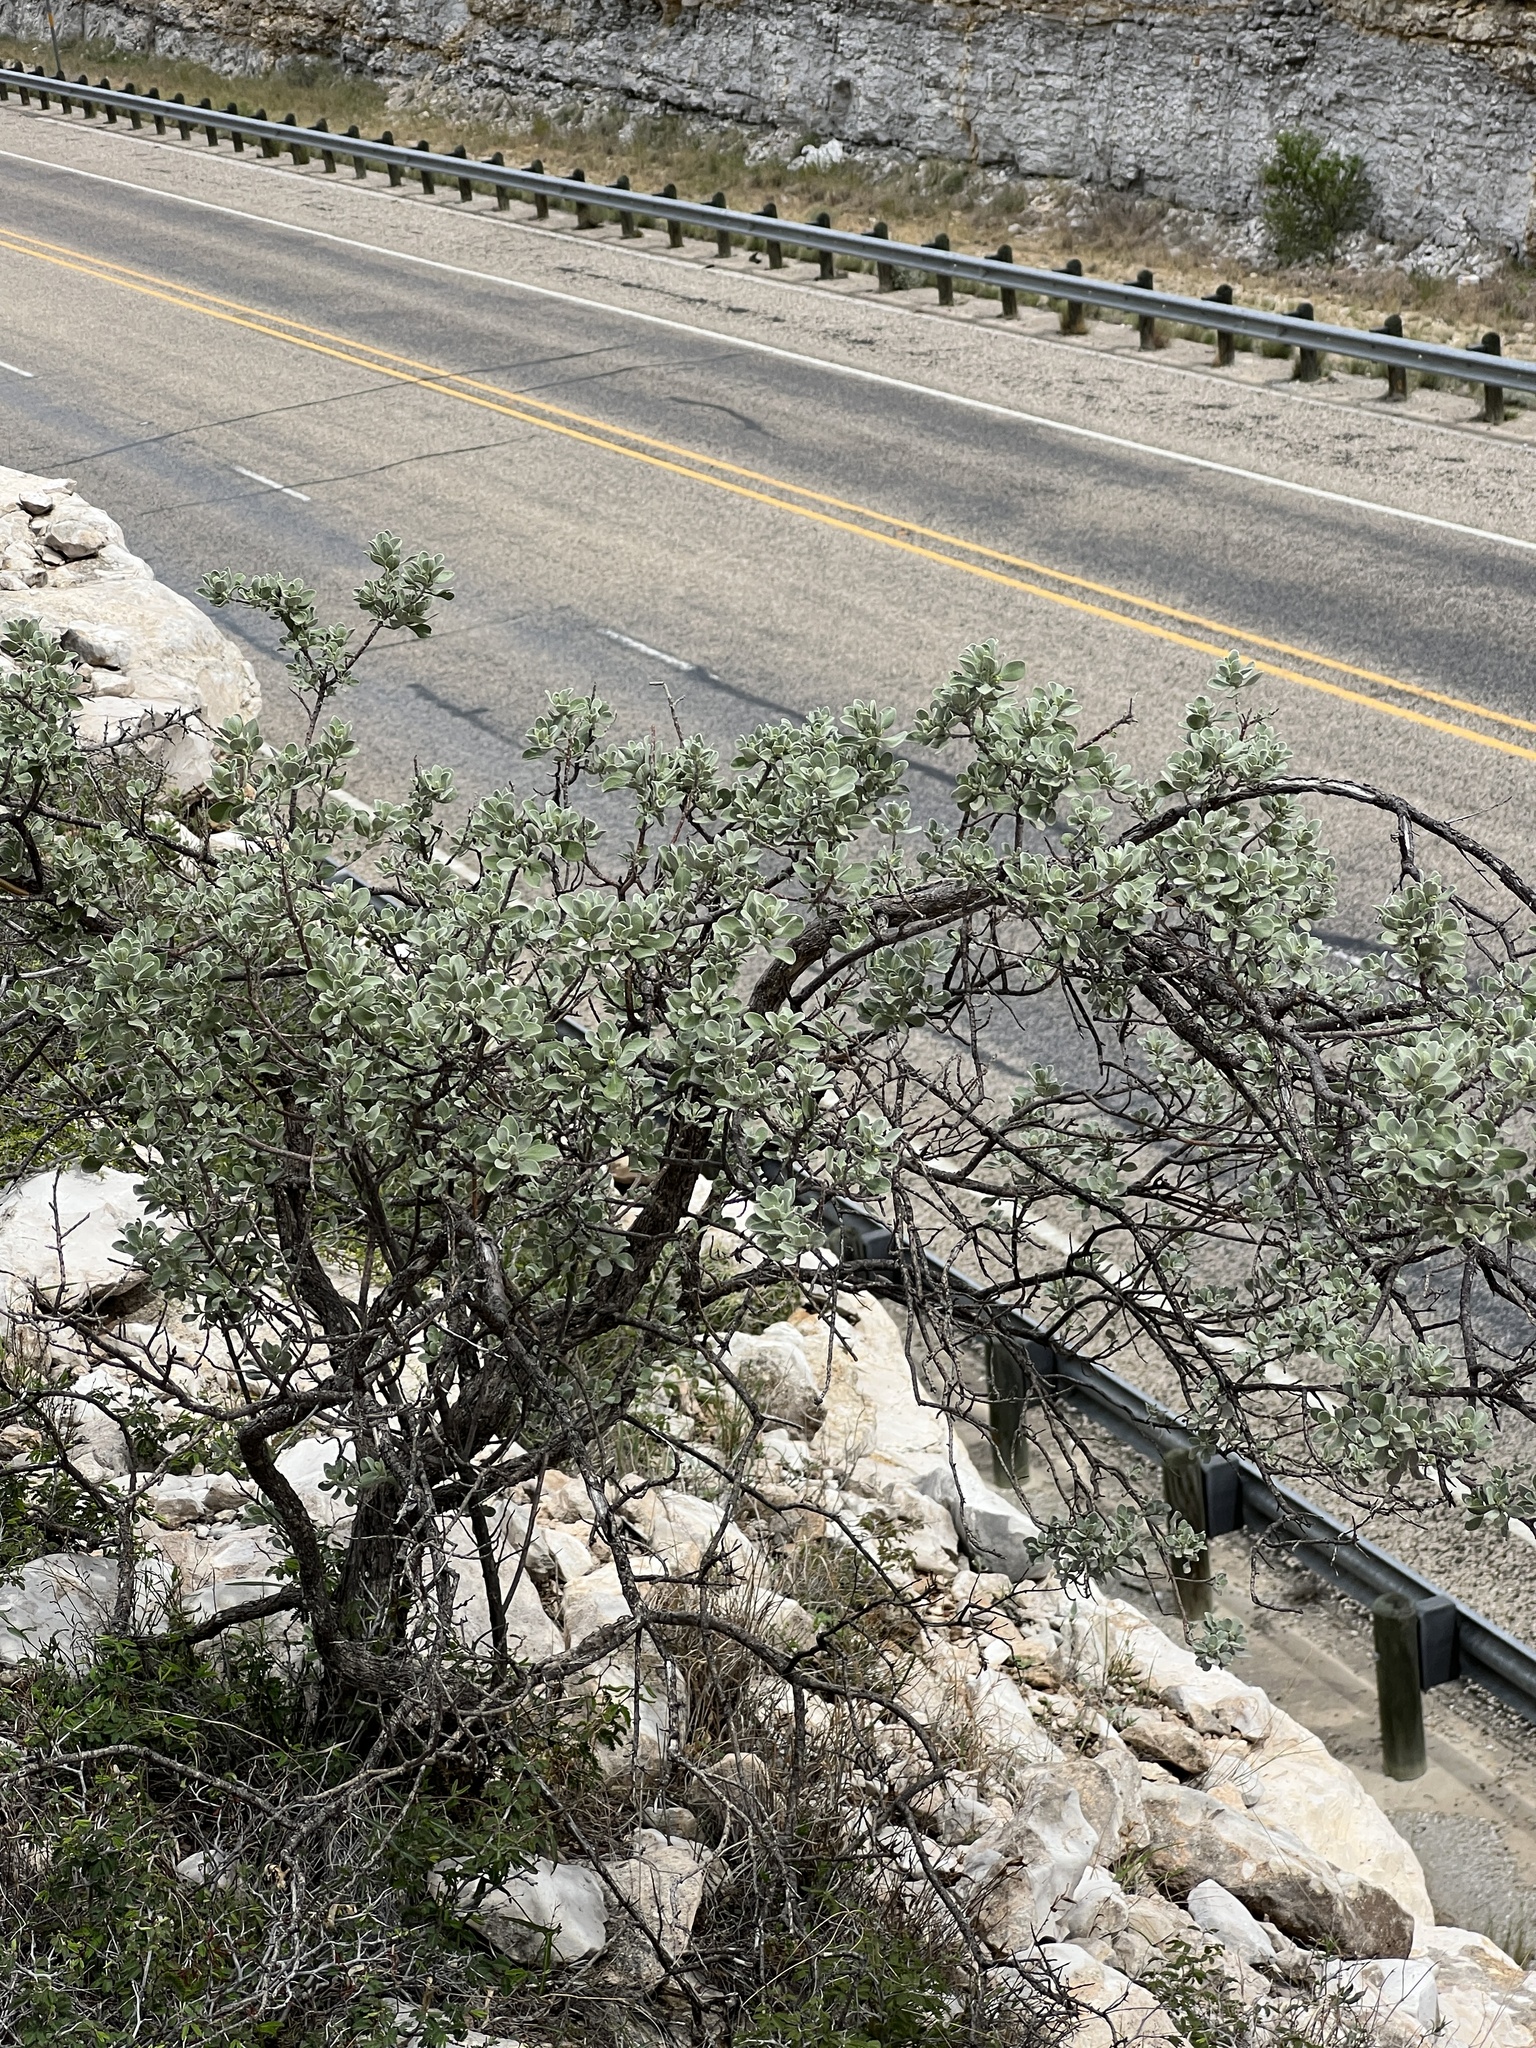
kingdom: Plantae
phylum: Tracheophyta
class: Magnoliopsida
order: Lamiales
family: Scrophulariaceae
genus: Leucophyllum
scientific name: Leucophyllum frutescens
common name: Texas silverleaf
